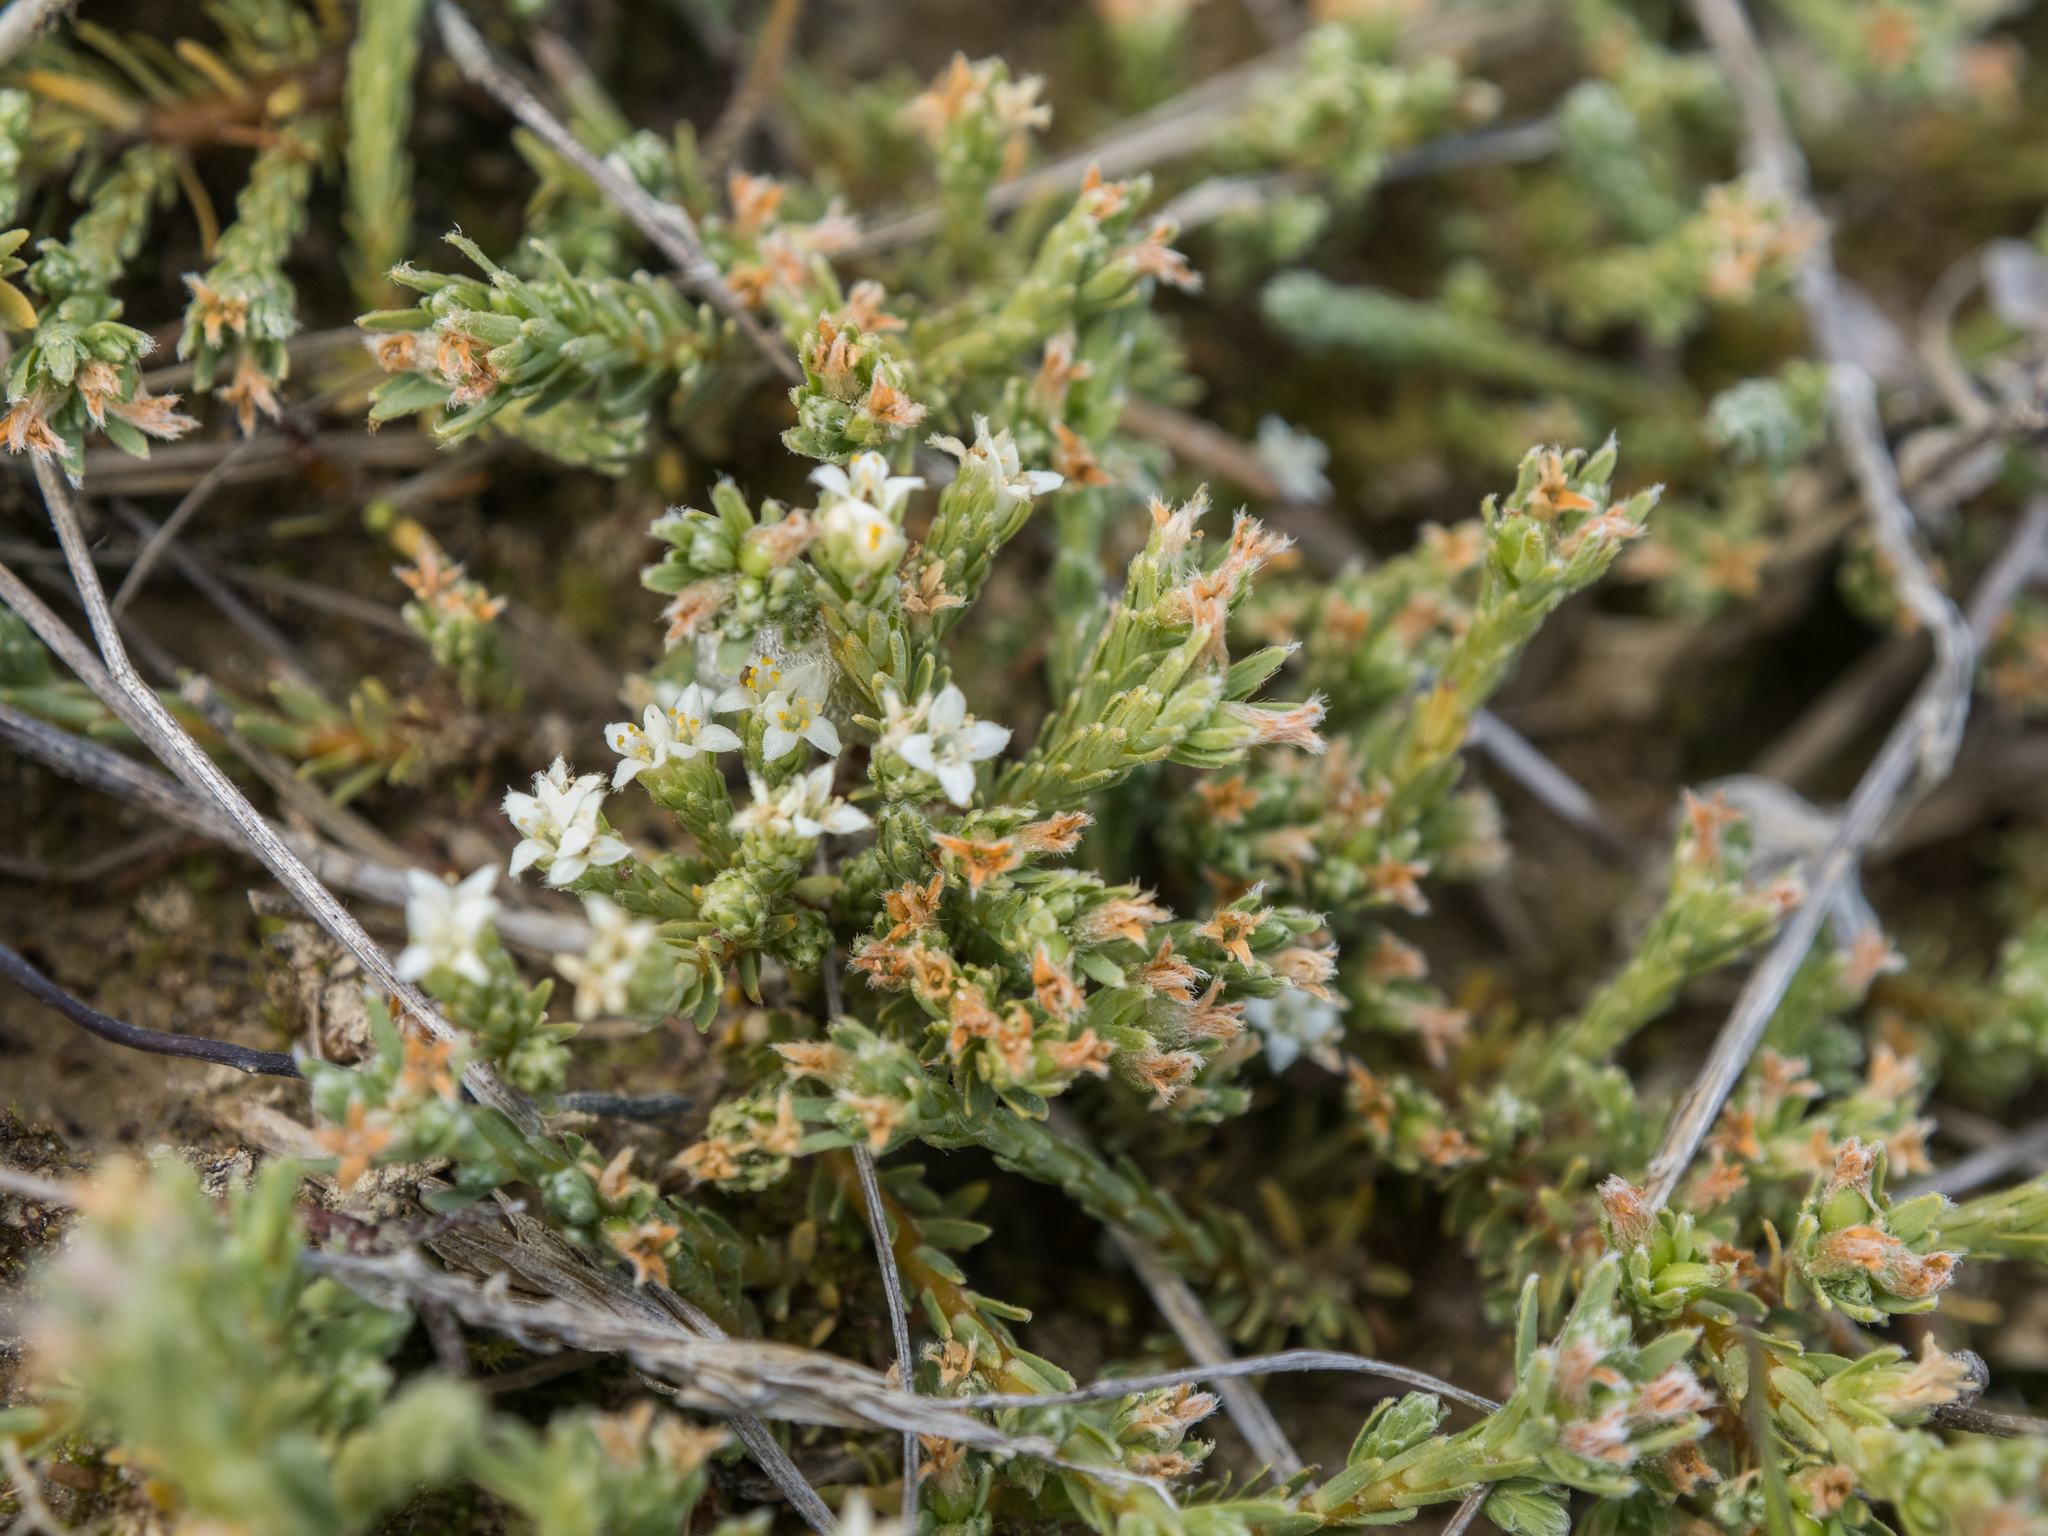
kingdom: Plantae
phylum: Tracheophyta
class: Magnoliopsida
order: Malvales
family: Thymelaeaceae
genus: Kelleria
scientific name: Kelleria dieffenbachii
